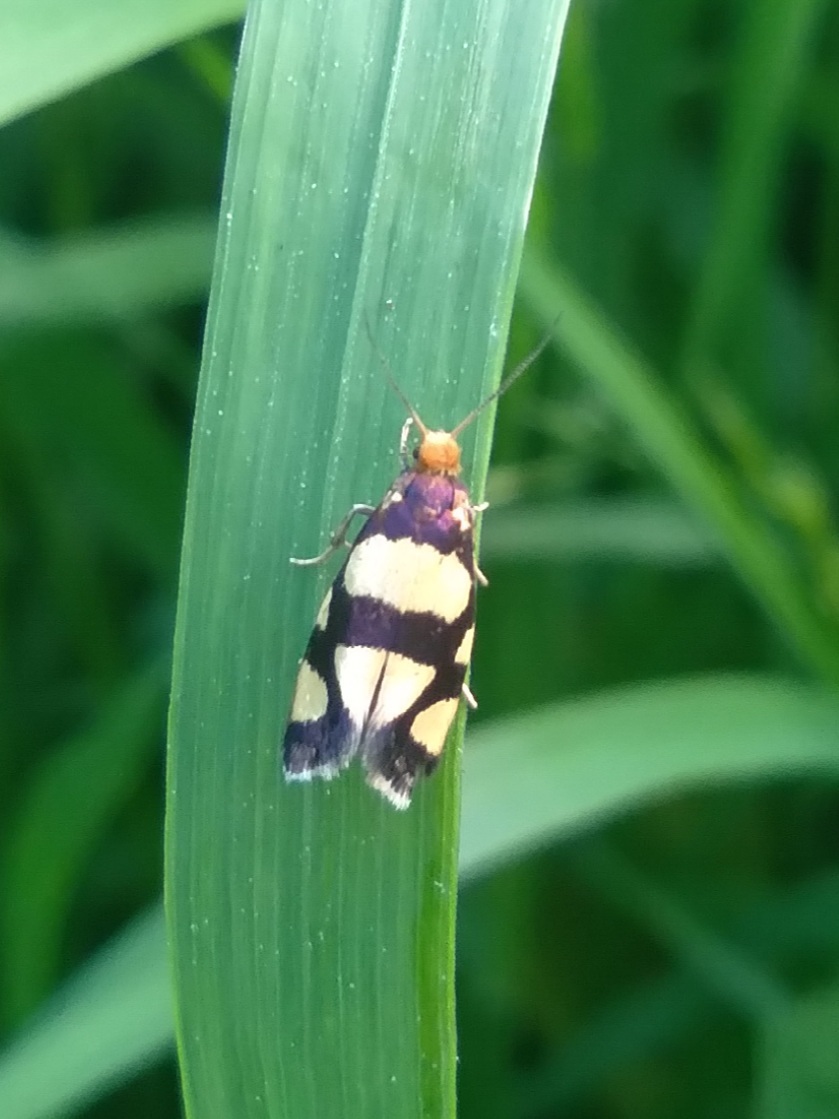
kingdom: Animalia
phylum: Arthropoda
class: Insecta
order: Lepidoptera
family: Incurvariidae
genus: Incurvaria
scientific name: Incurvaria rupella
